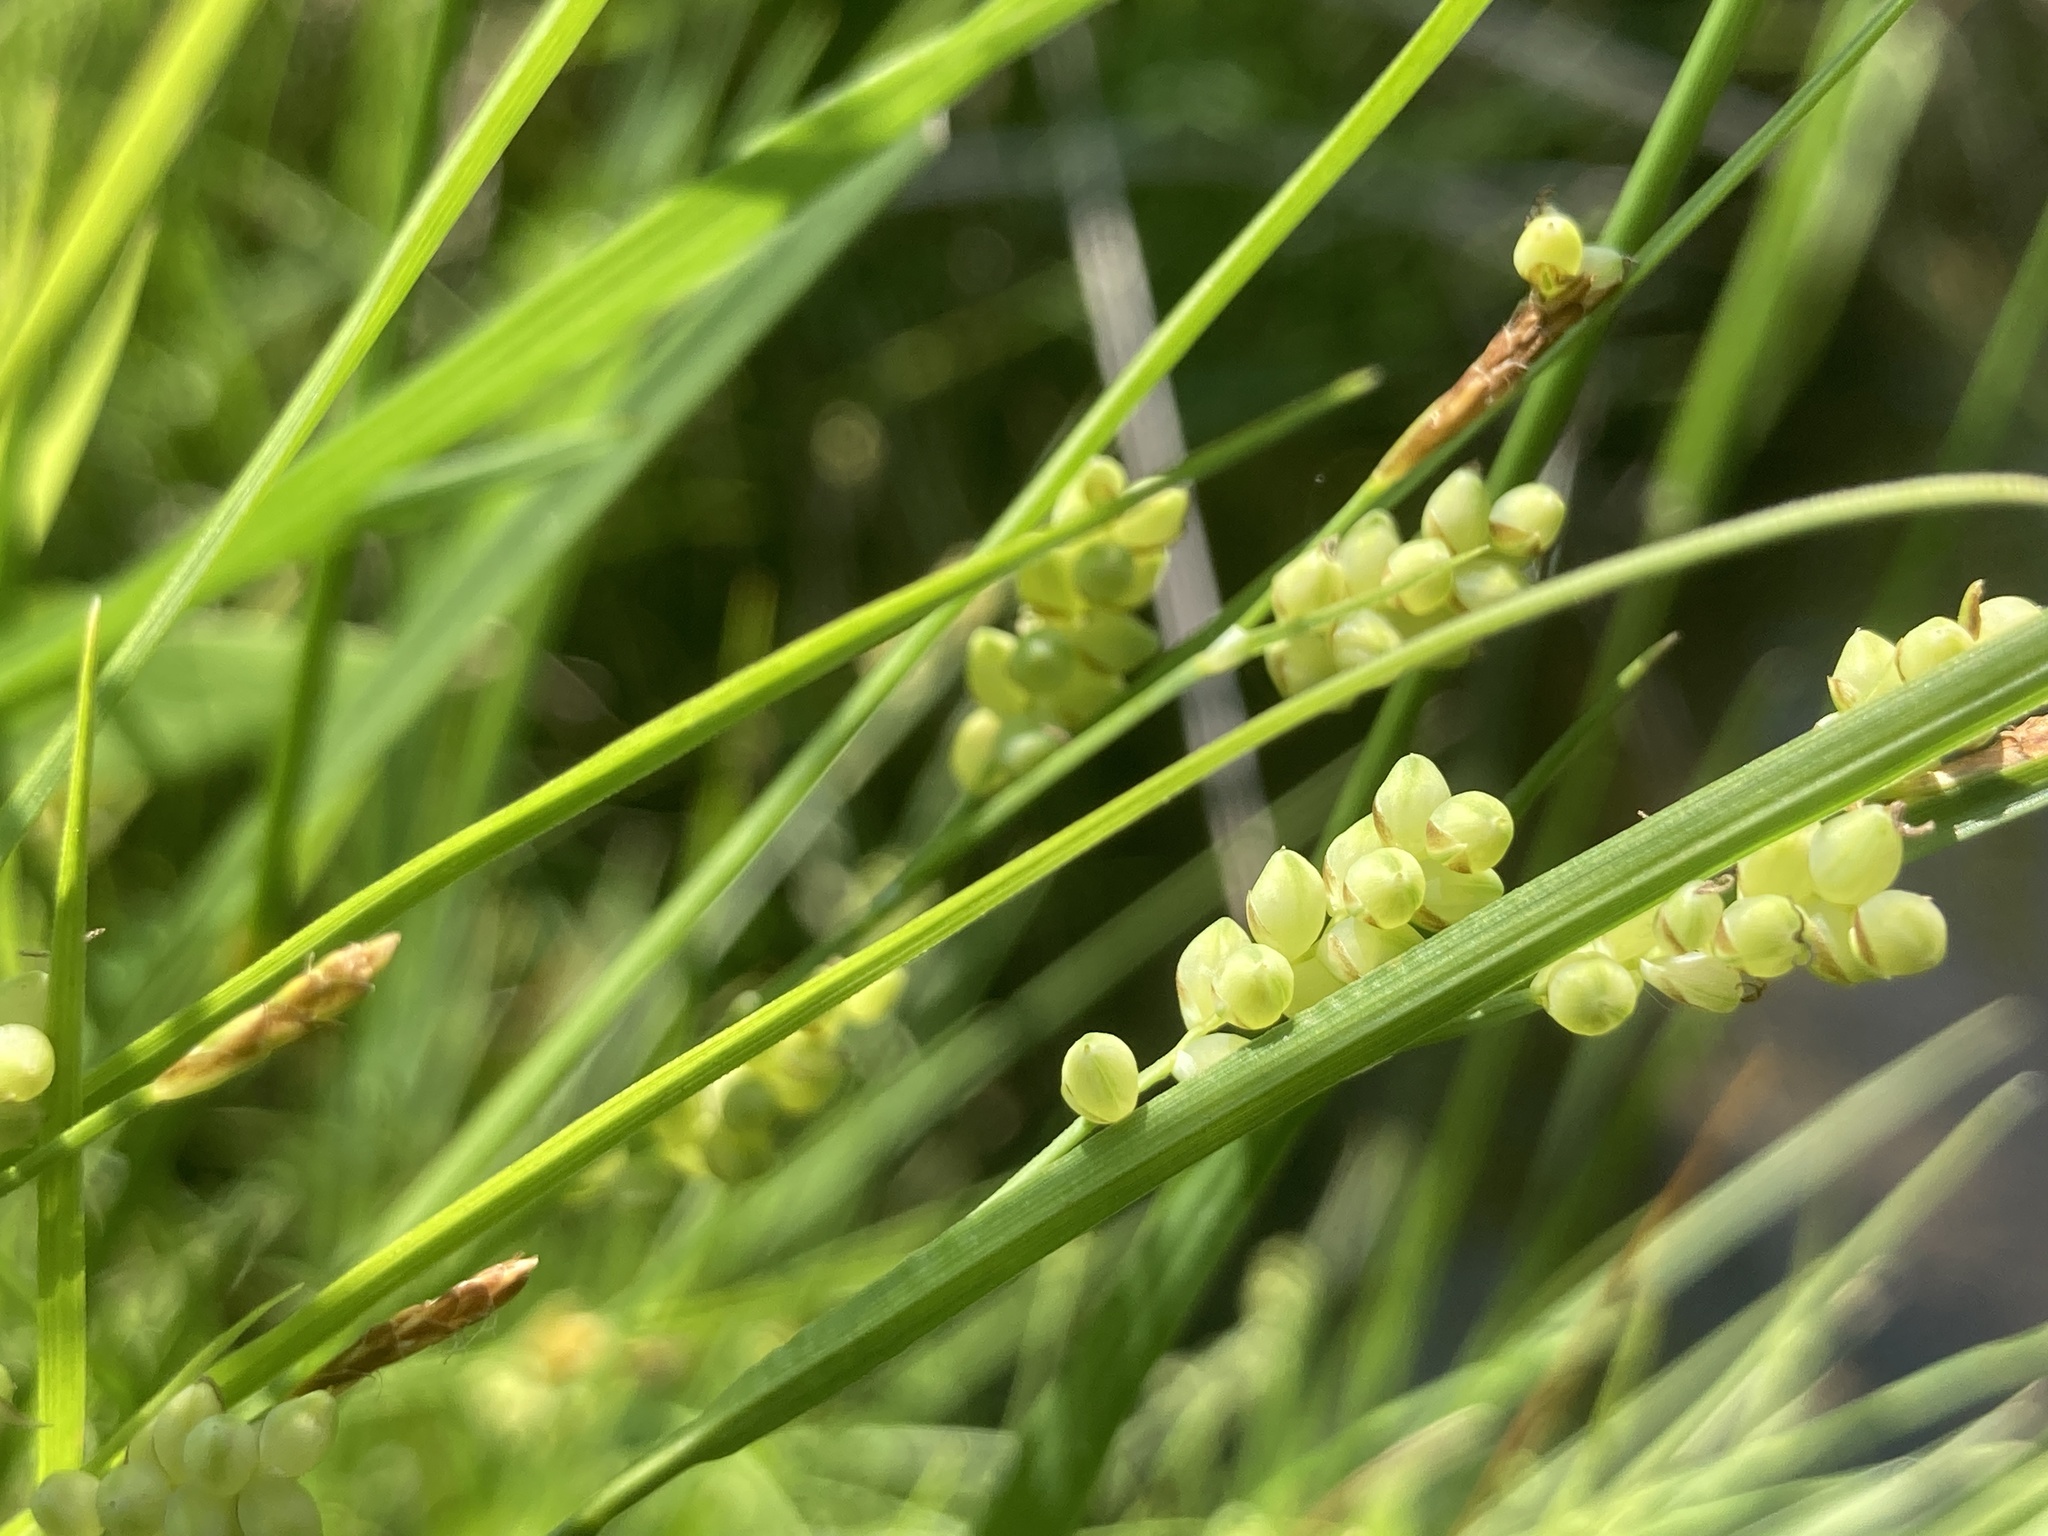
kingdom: Plantae
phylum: Tracheophyta
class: Liliopsida
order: Poales
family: Cyperaceae
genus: Carex
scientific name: Carex aurea
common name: Golden sedge
